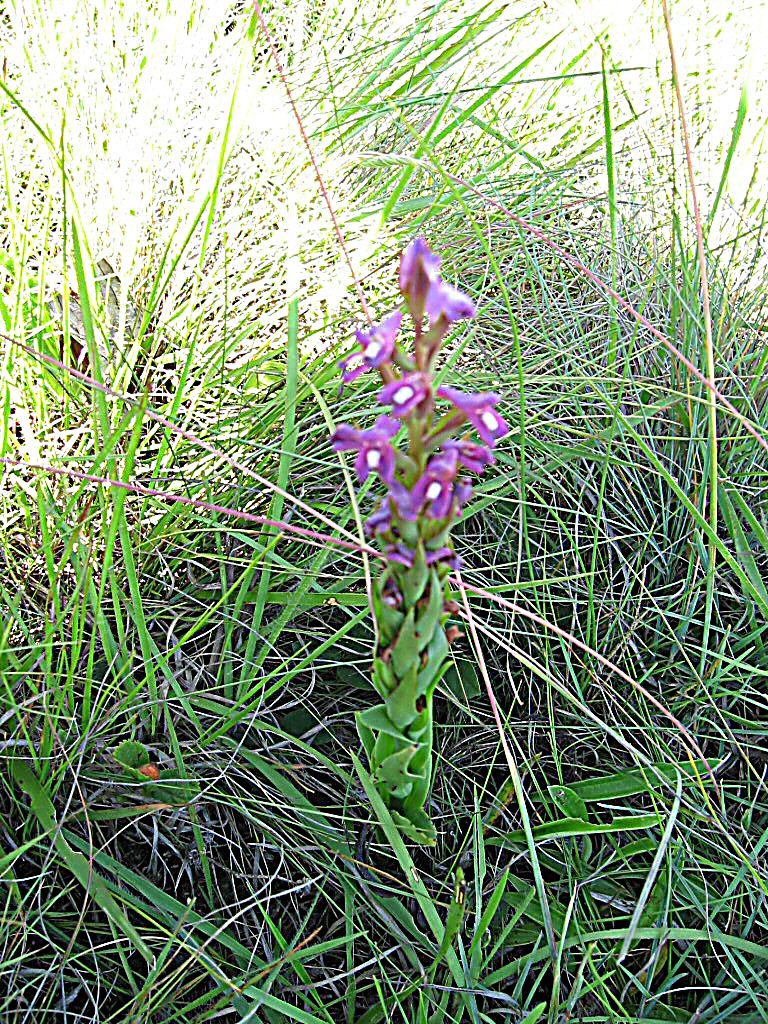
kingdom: Plantae
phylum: Tracheophyta
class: Liliopsida
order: Asparagales
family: Orchidaceae
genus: Disa
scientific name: Disa stachyoides
